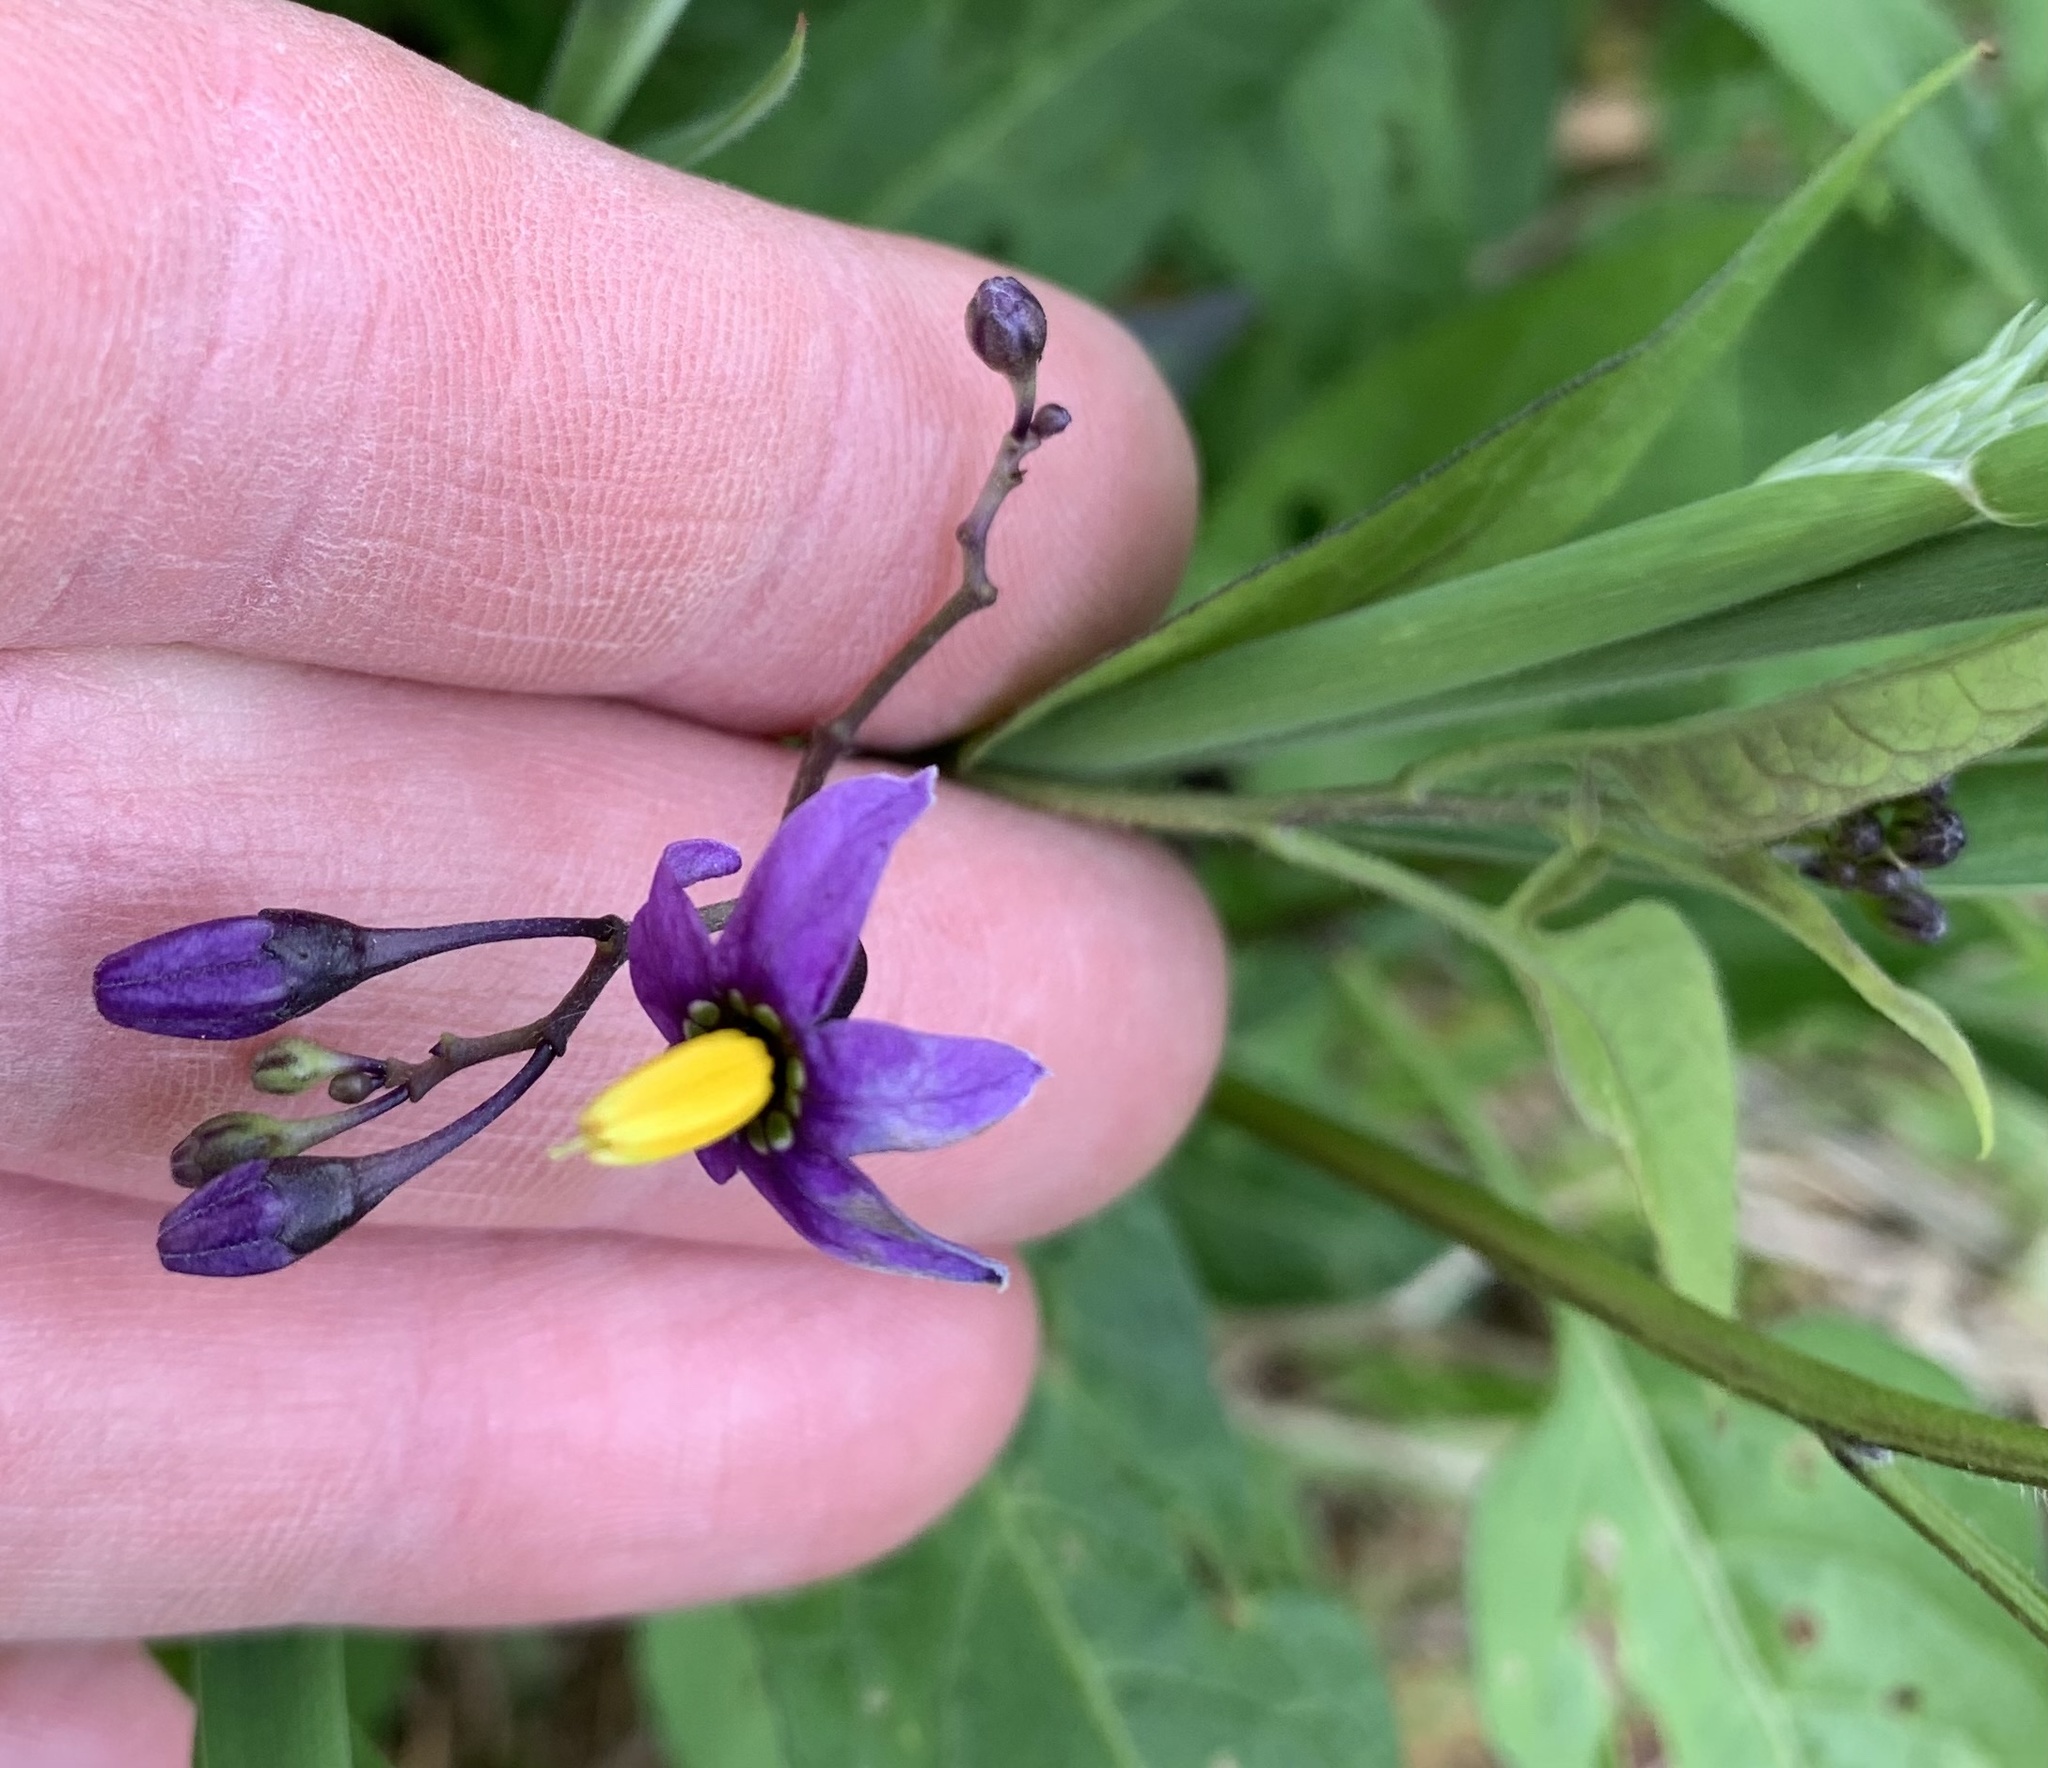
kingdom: Plantae
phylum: Tracheophyta
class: Magnoliopsida
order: Solanales
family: Solanaceae
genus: Solanum
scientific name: Solanum dulcamara
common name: Climbing nightshade
